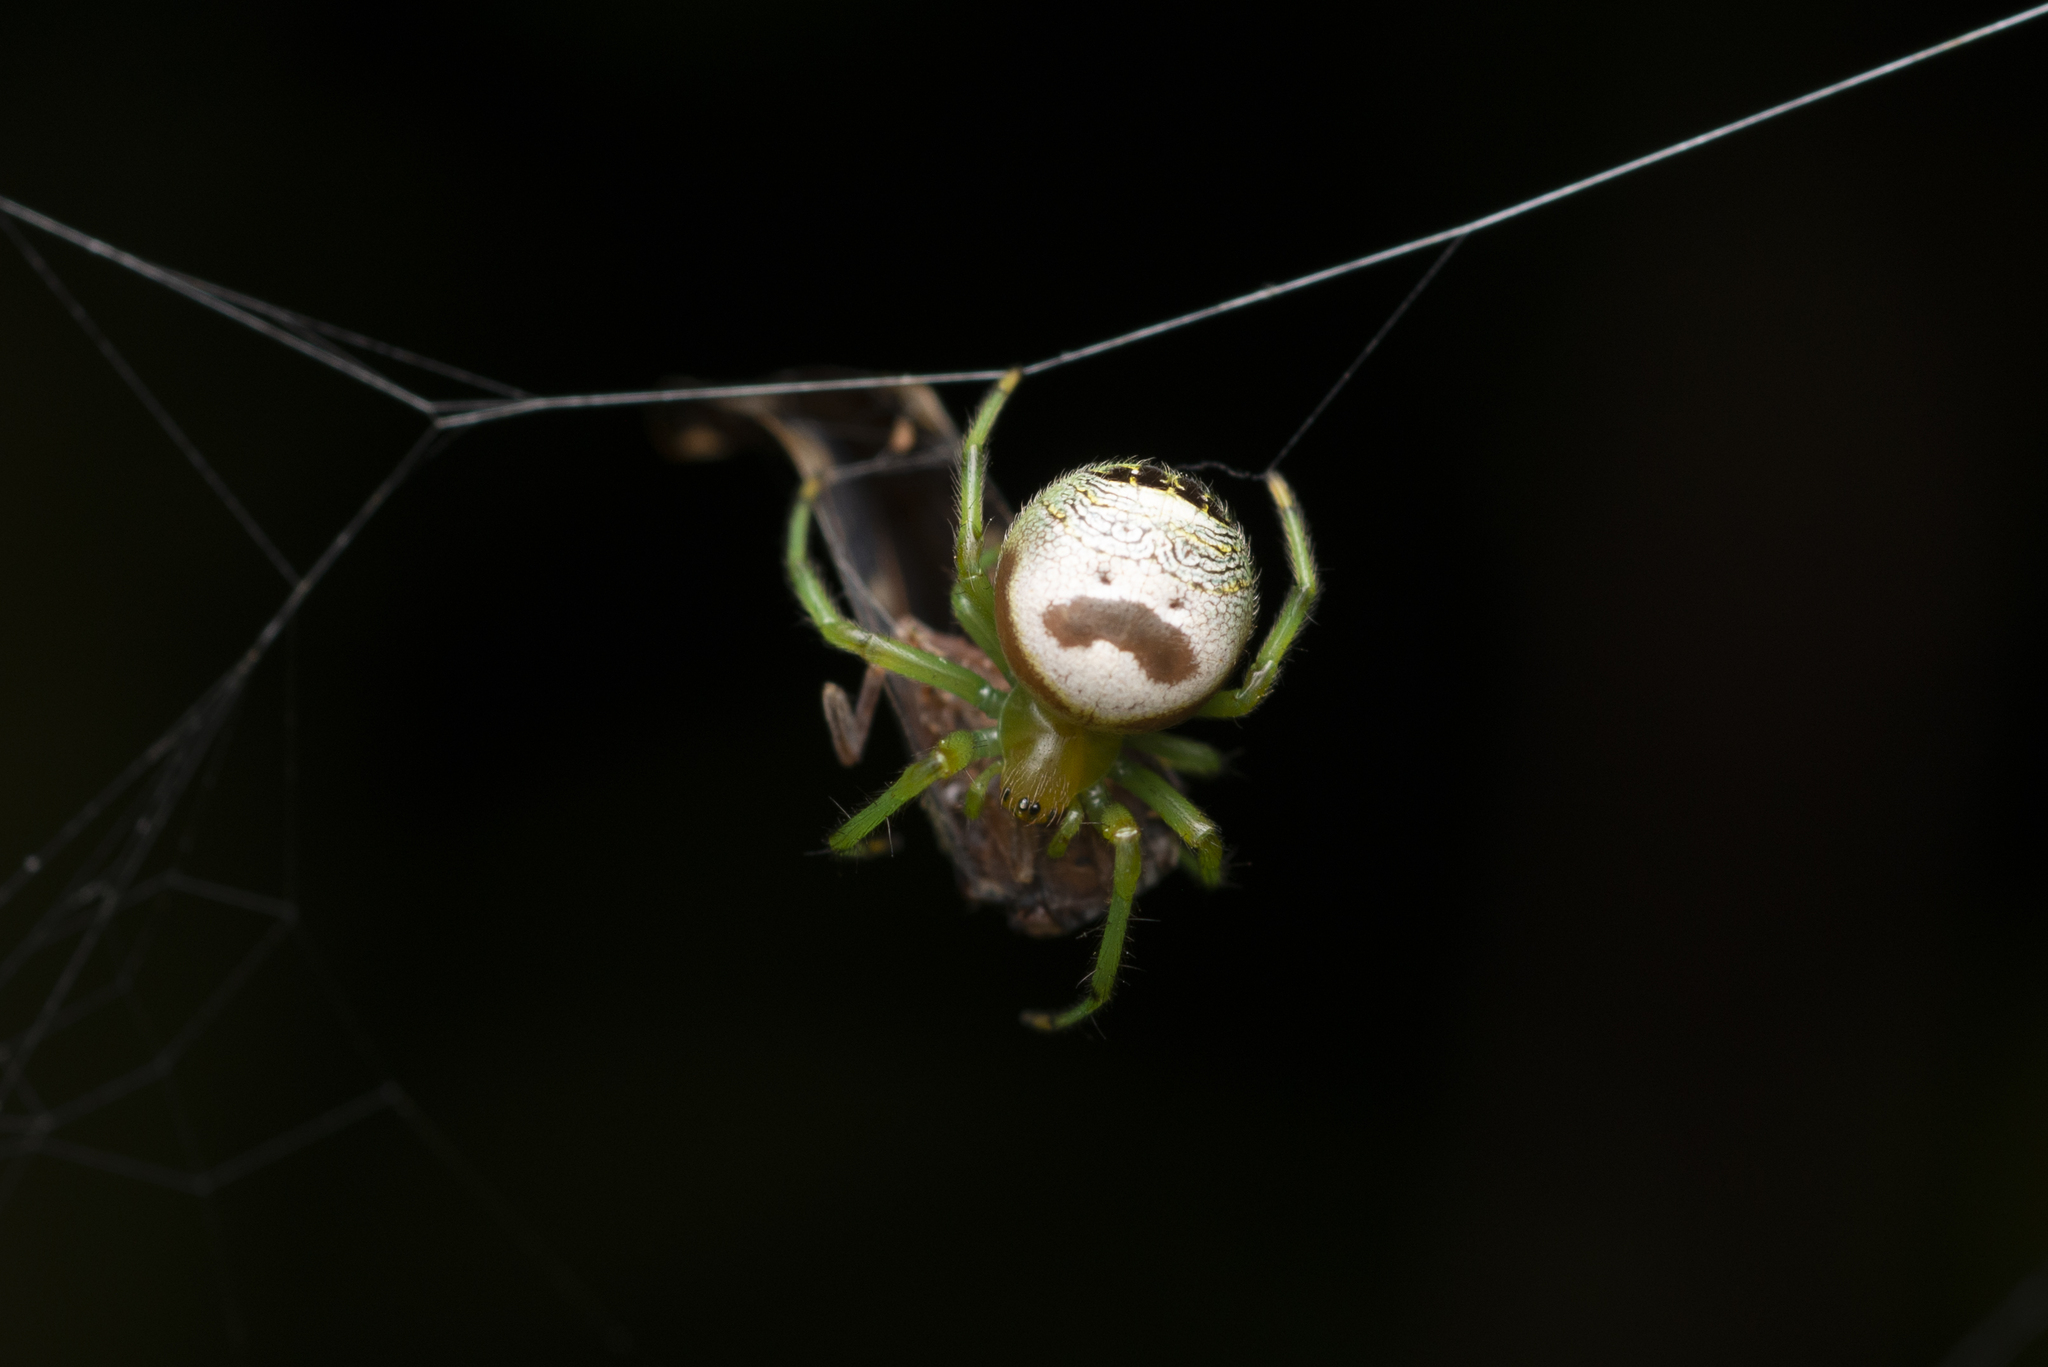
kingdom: Animalia
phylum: Arthropoda
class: Arachnida
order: Araneae
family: Araneidae
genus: Bijoaraneus
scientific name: Bijoaraneus mitificus
